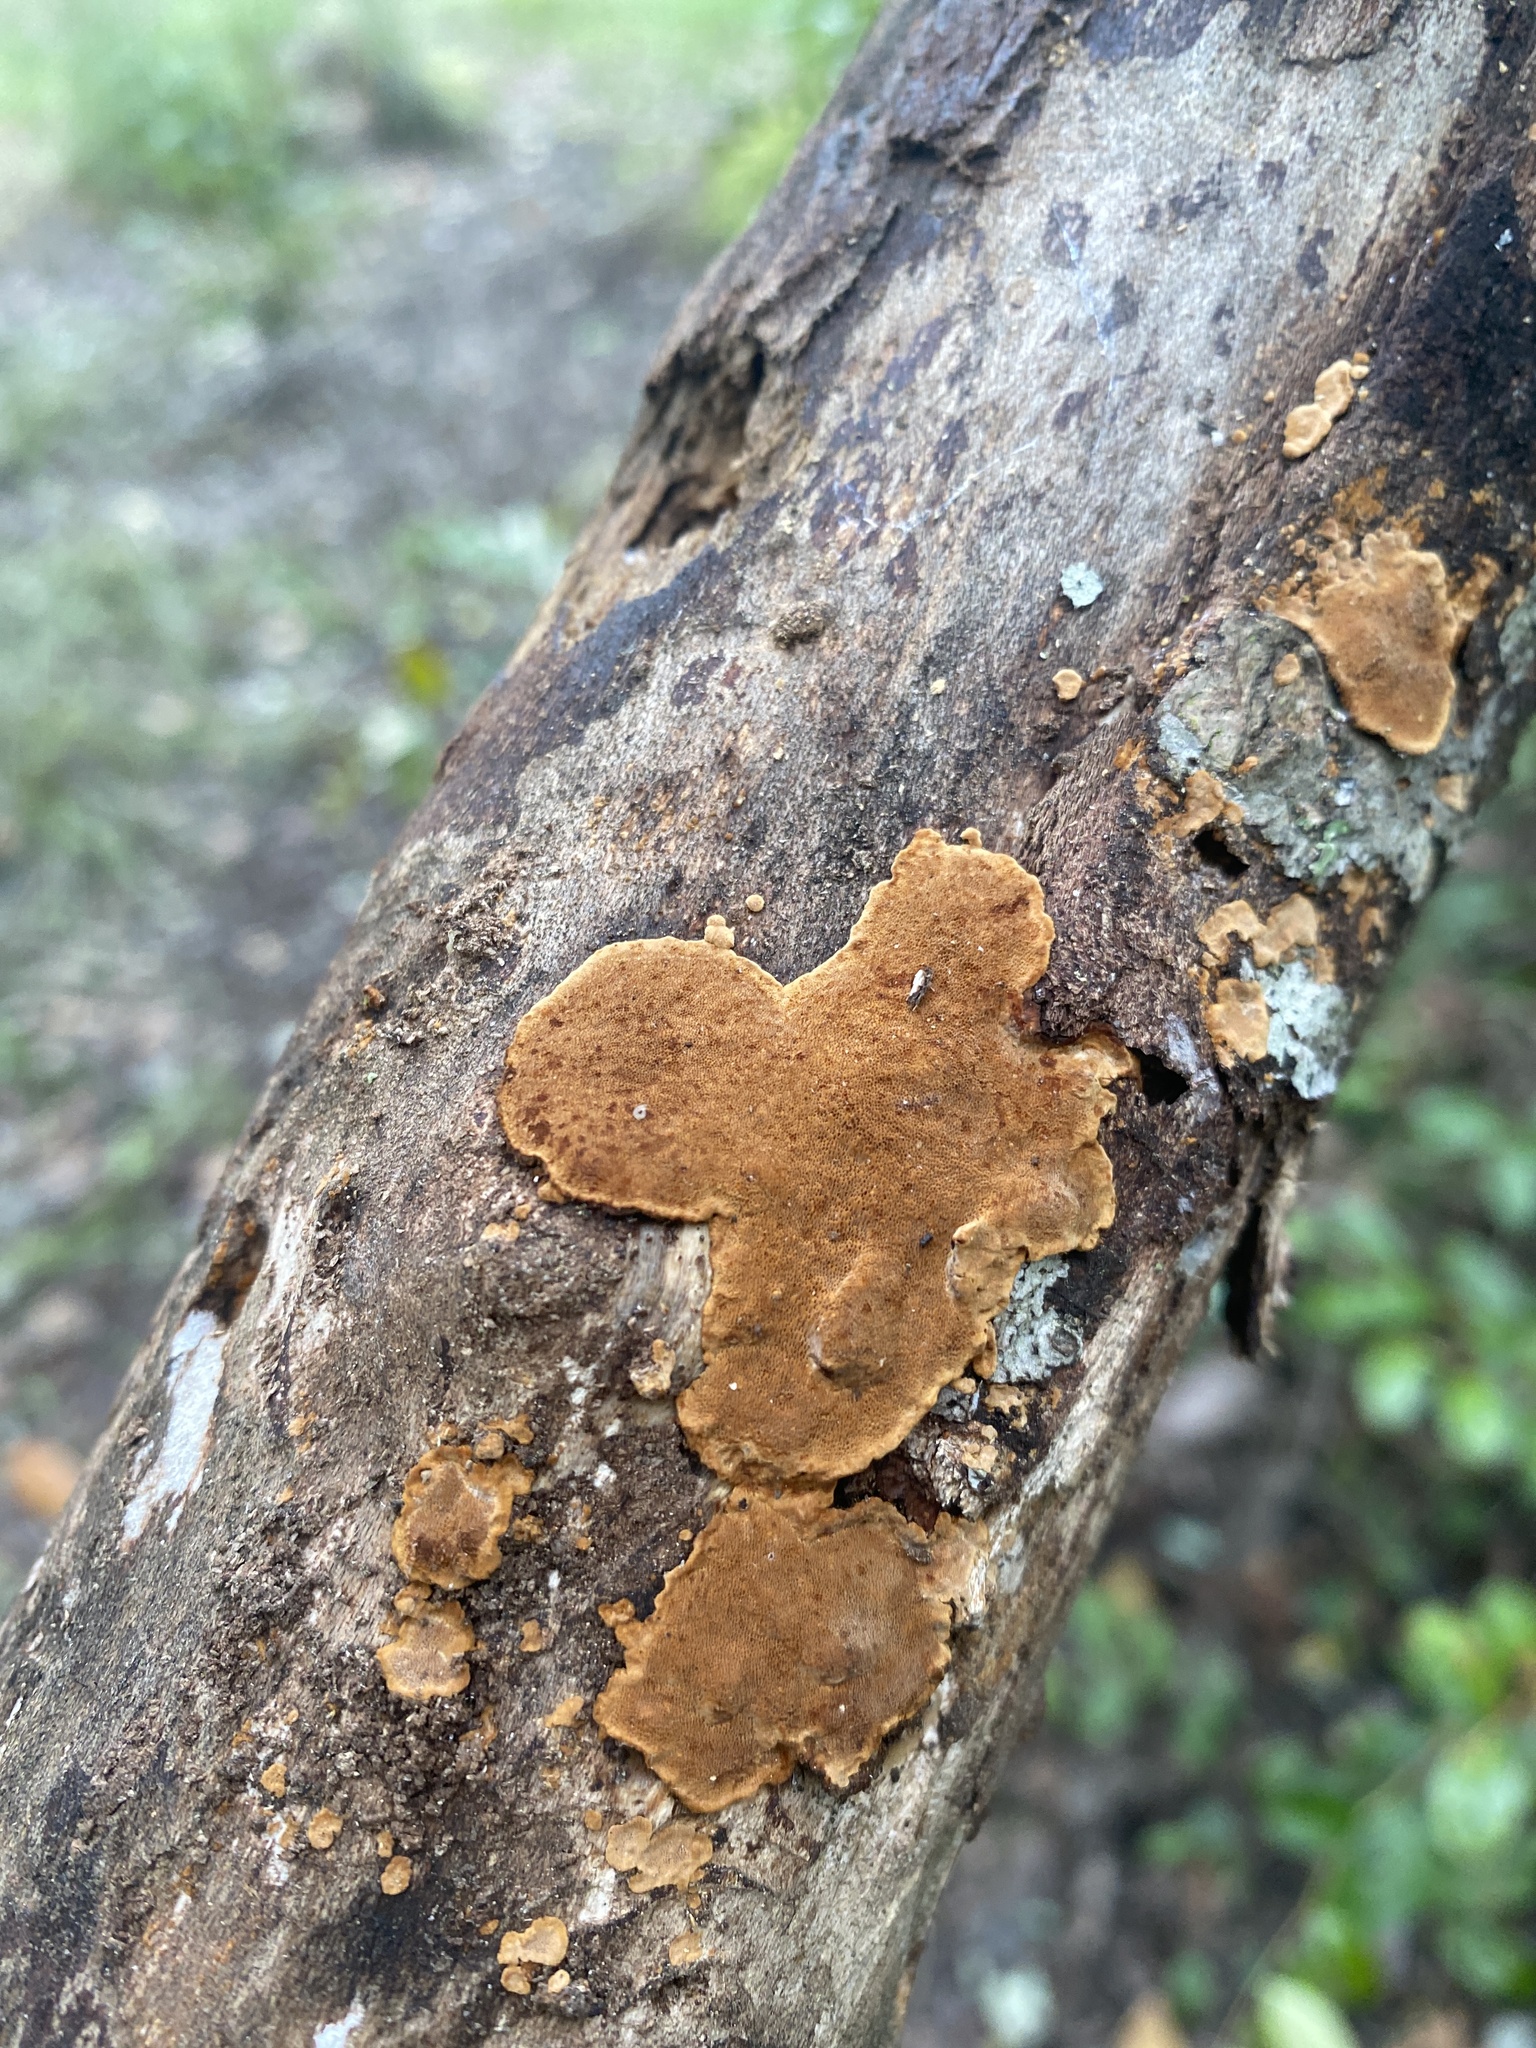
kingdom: Fungi
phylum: Basidiomycota
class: Agaricomycetes
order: Hymenochaetales
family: Hymenochaetaceae
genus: Phellinus
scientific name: Phellinus gilvus
